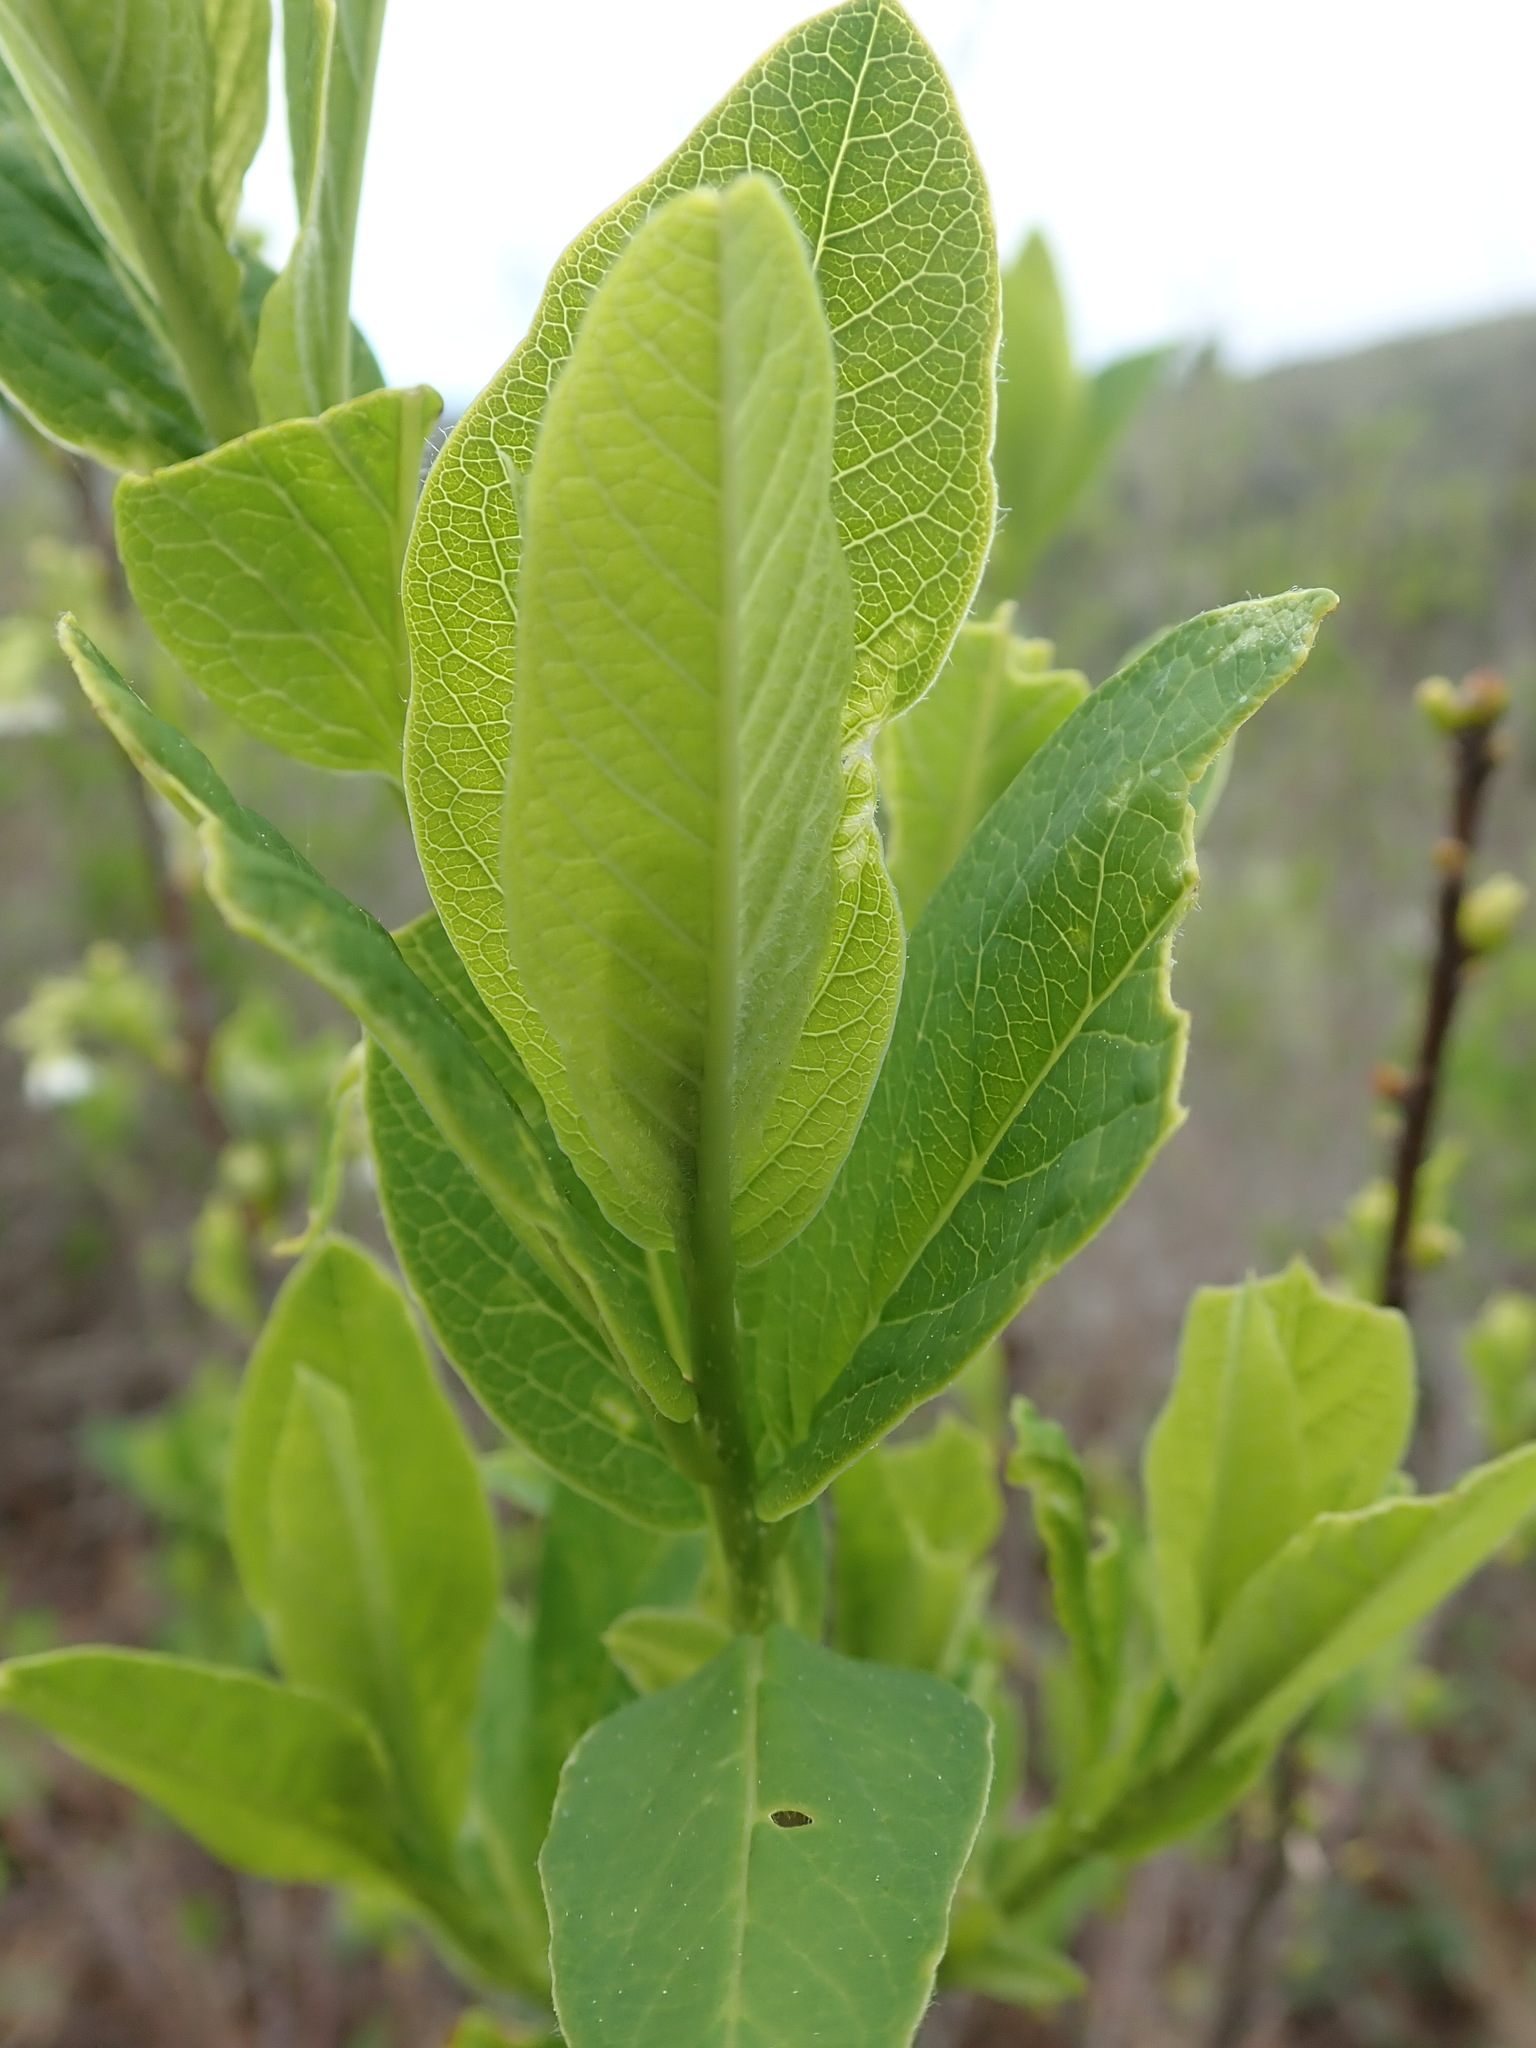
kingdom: Plantae
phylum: Tracheophyta
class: Magnoliopsida
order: Rosales
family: Rosaceae
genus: Oemleria
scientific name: Oemleria cerasiformis
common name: Osoberry
